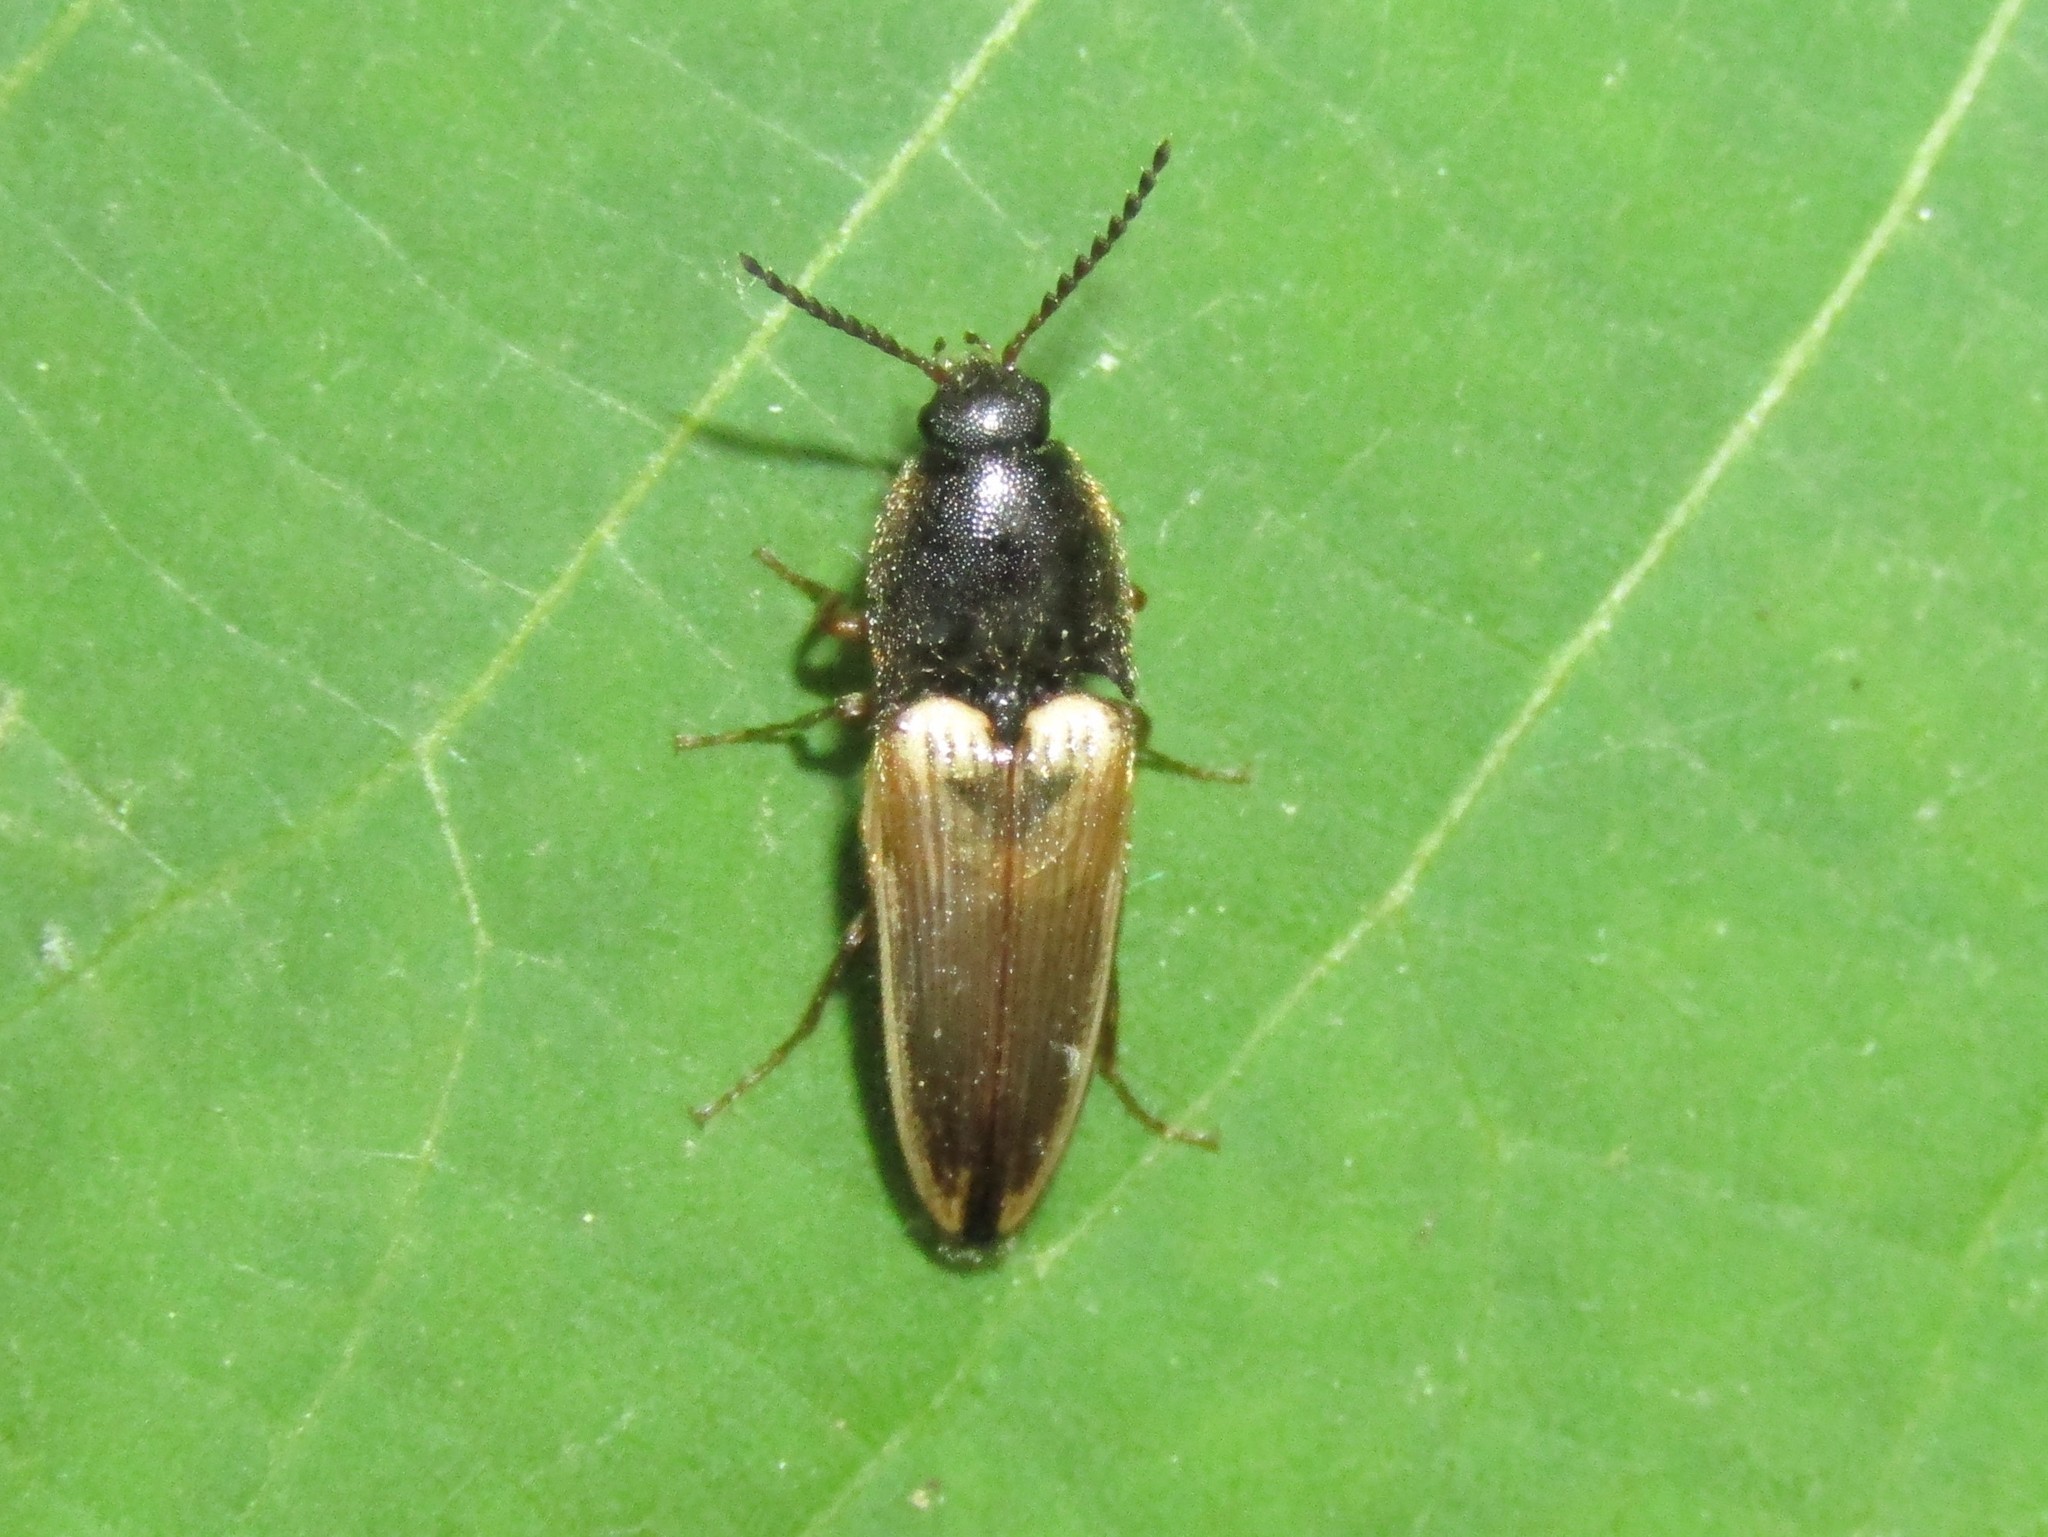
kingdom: Animalia
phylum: Arthropoda
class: Insecta
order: Coleoptera
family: Elateridae
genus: Ampedus
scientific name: Ampedus nigricollis
